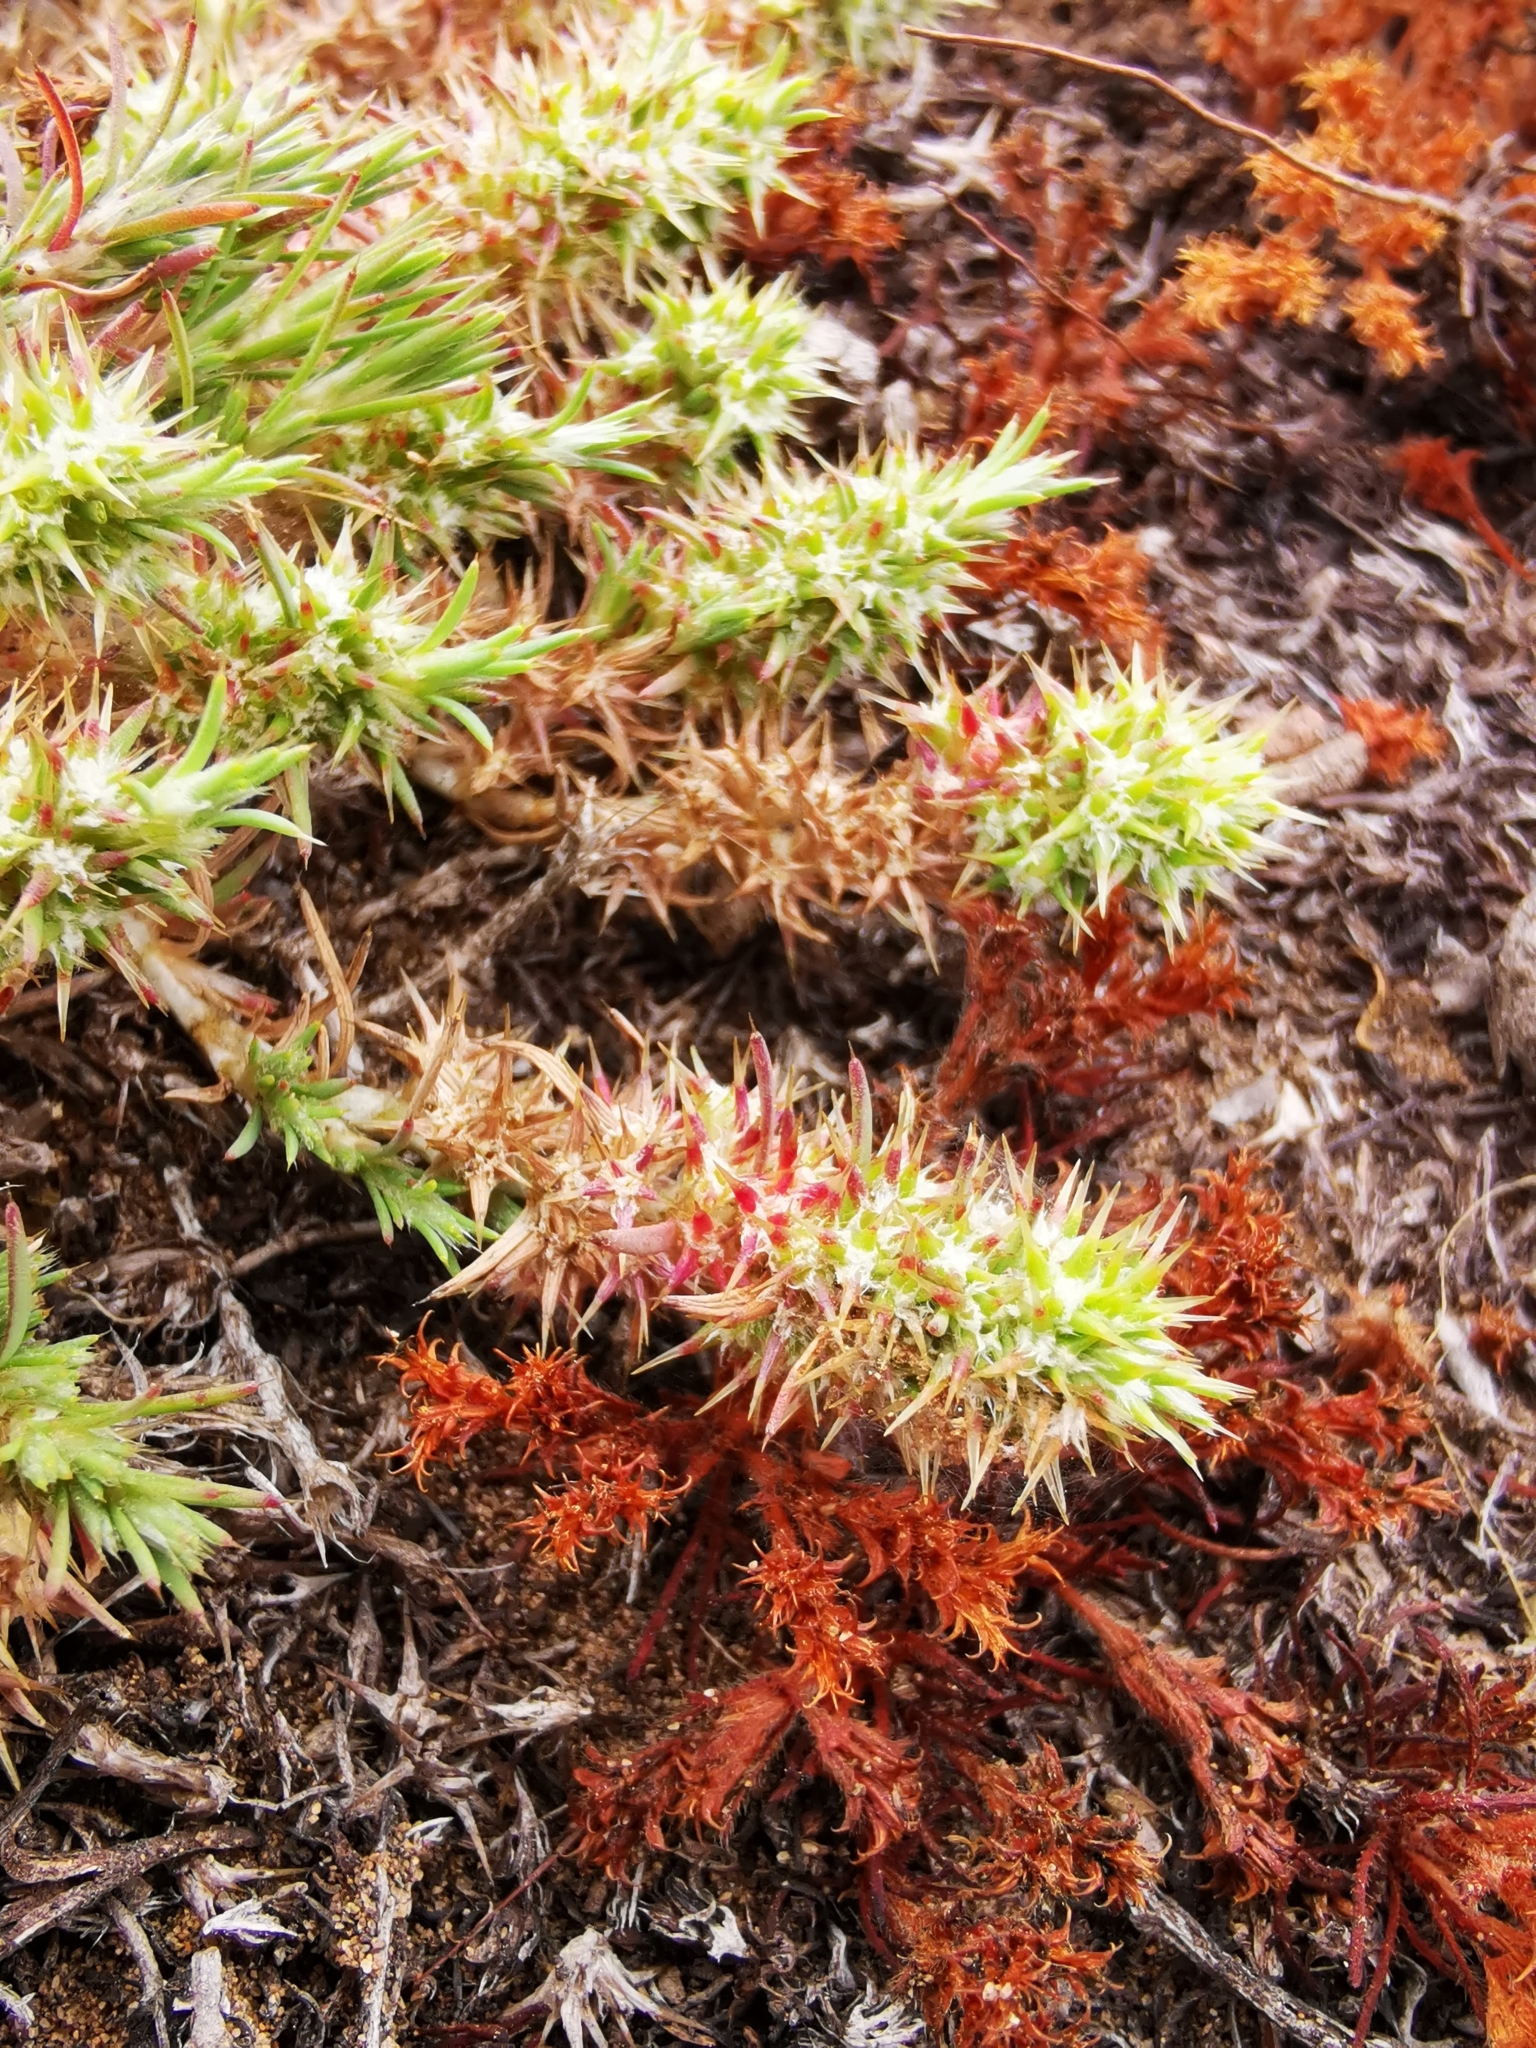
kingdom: Plantae
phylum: Tracheophyta
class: Magnoliopsida
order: Caryophyllales
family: Caryophyllaceae
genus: Cardionema
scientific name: Cardionema ramosissima
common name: Sandcarpet
